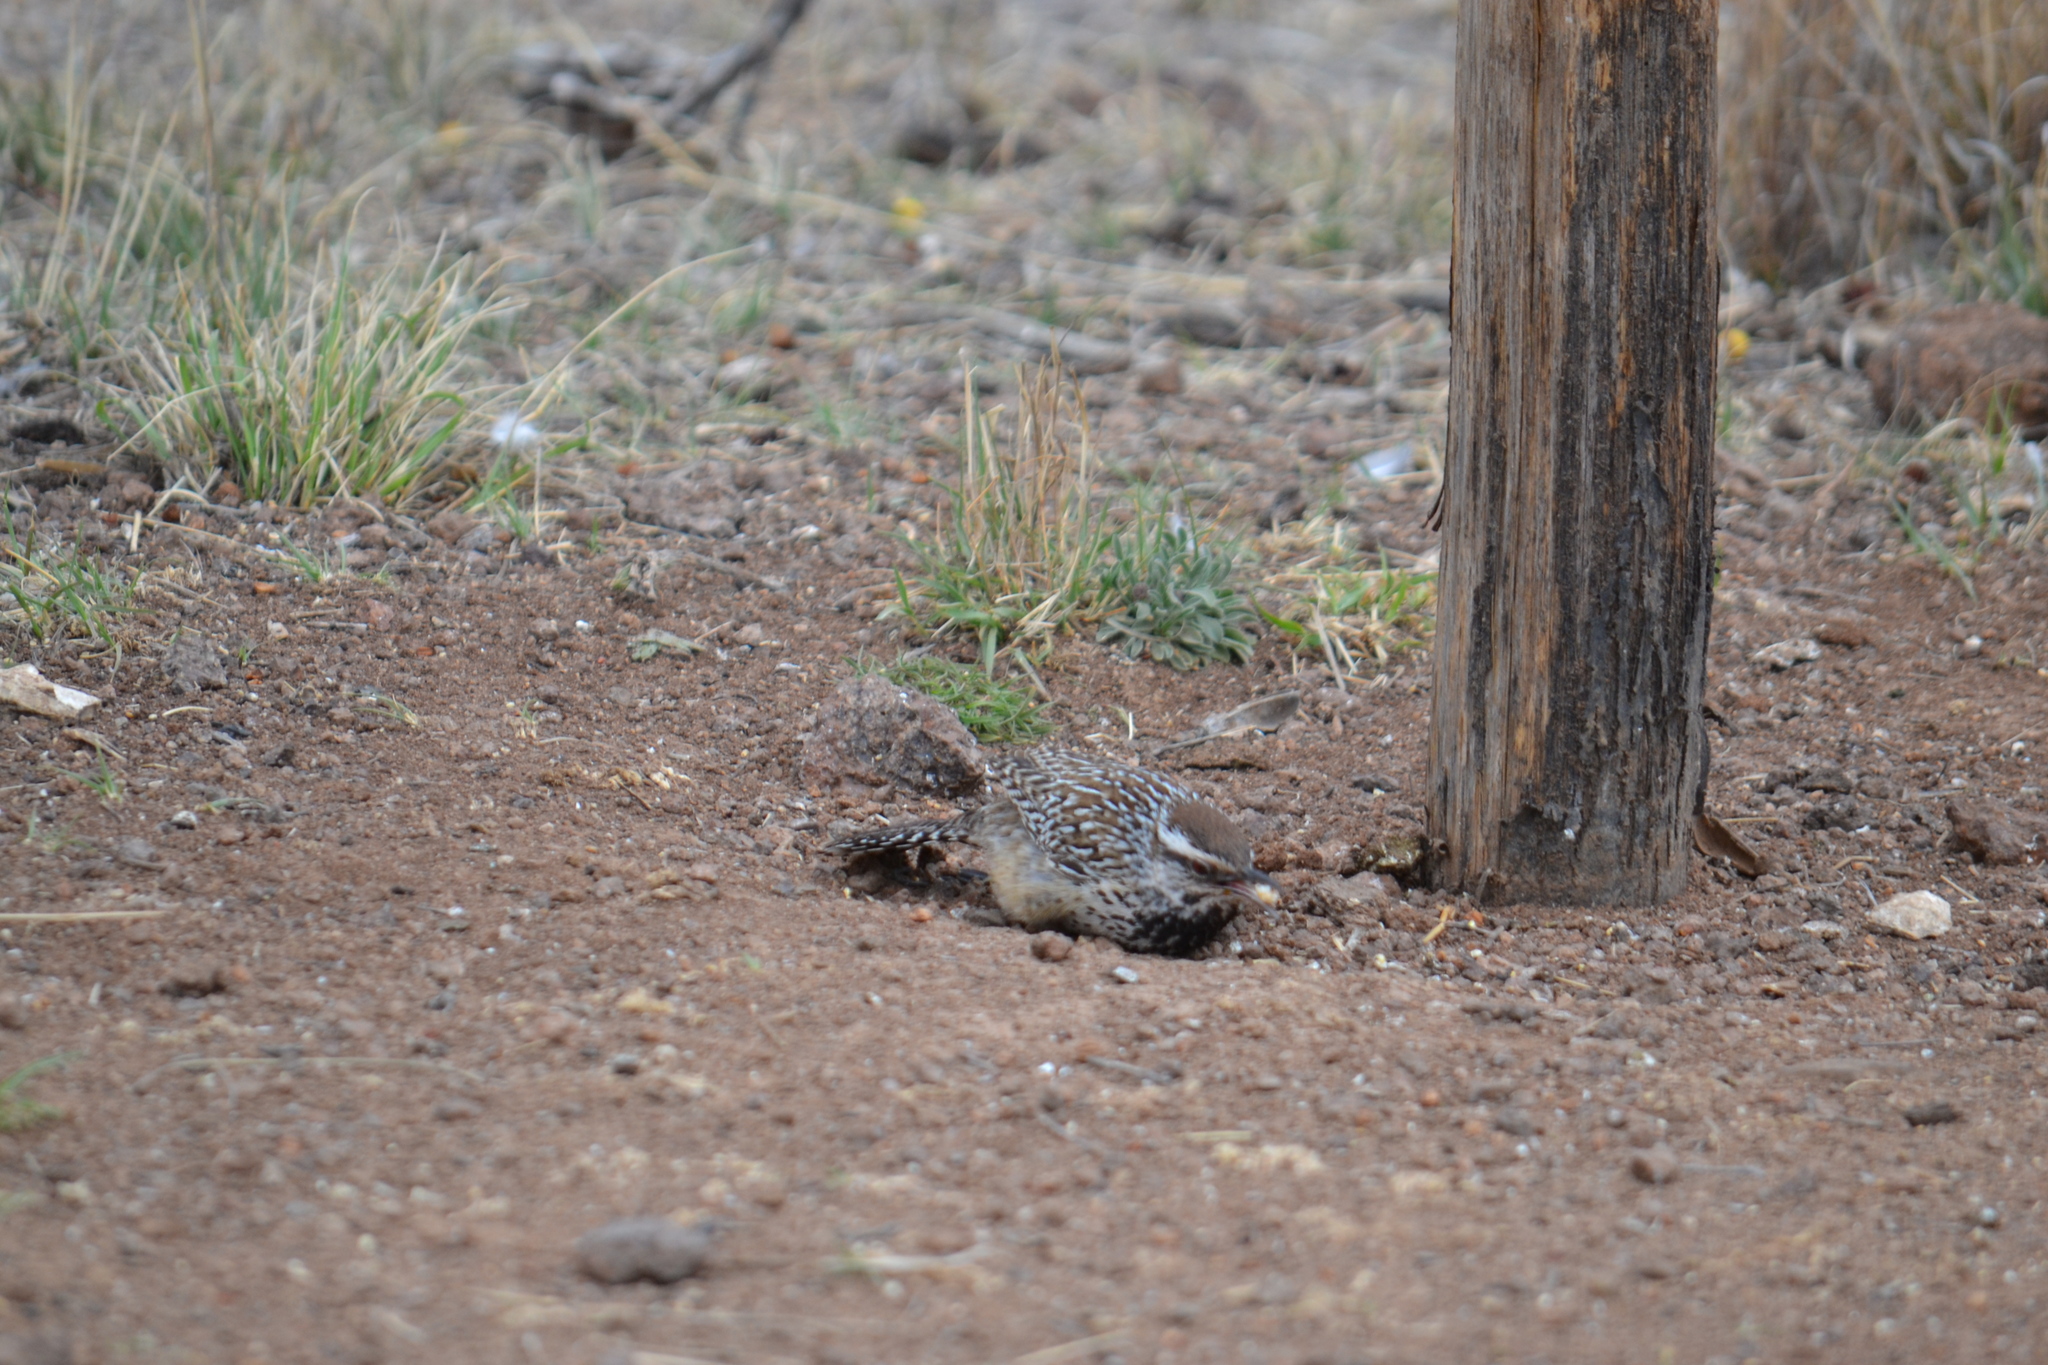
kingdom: Animalia
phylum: Chordata
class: Aves
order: Passeriformes
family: Troglodytidae
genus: Campylorhynchus
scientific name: Campylorhynchus brunneicapillus
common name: Cactus wren
